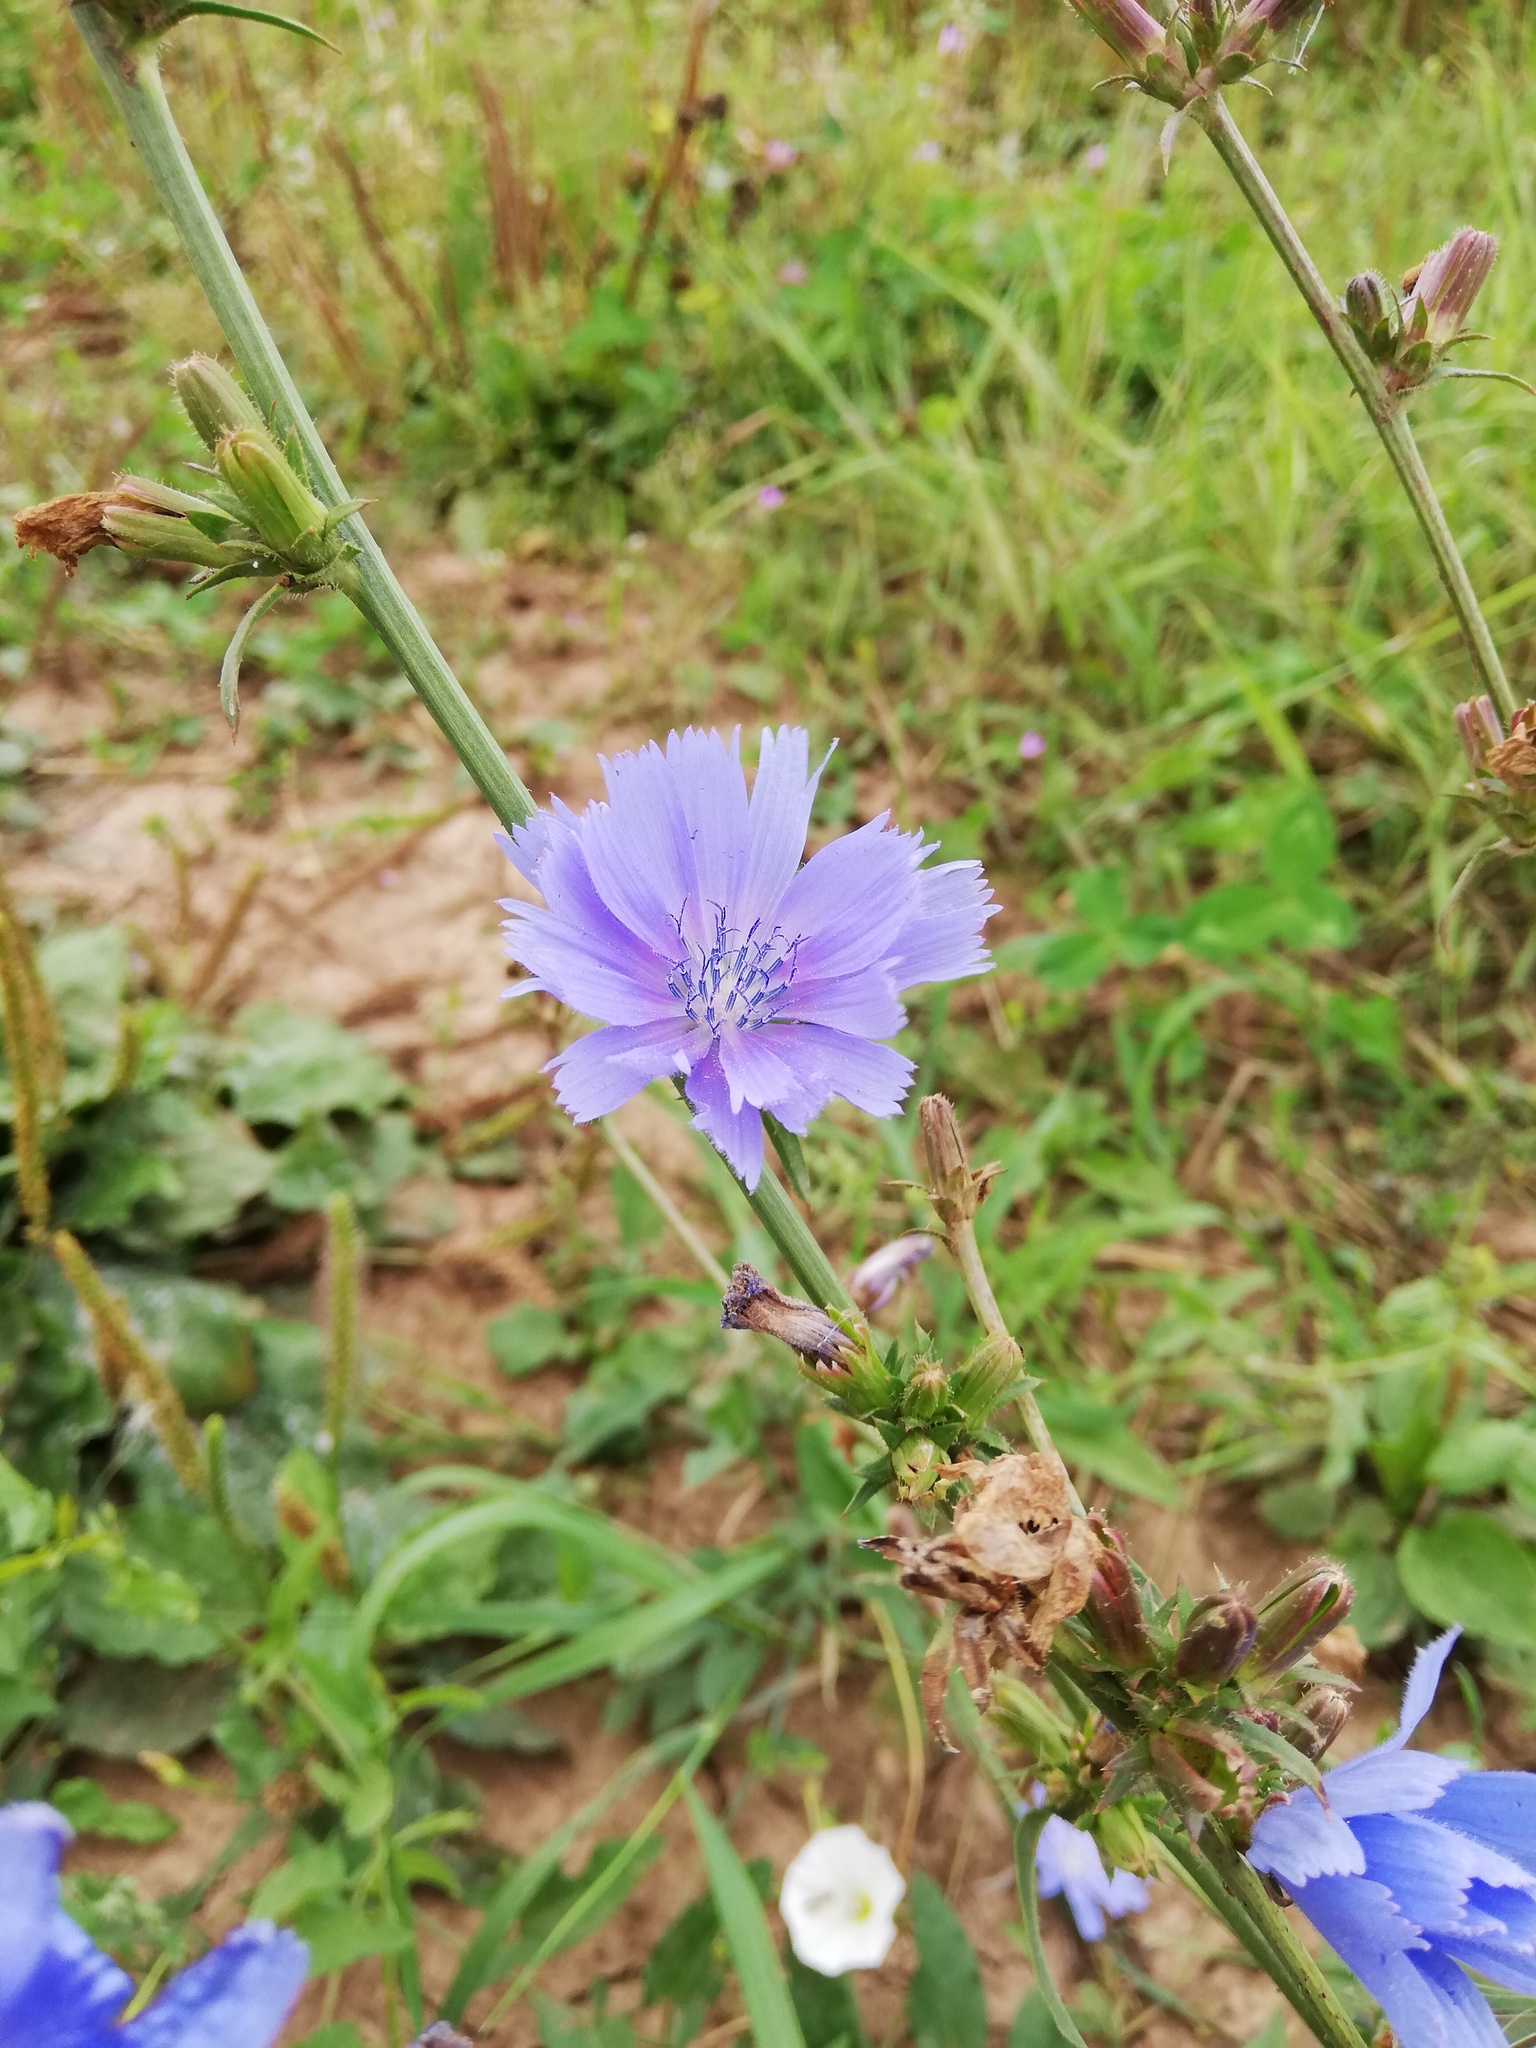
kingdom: Plantae
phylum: Tracheophyta
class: Magnoliopsida
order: Asterales
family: Asteraceae
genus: Cichorium
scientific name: Cichorium intybus
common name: Chicory
